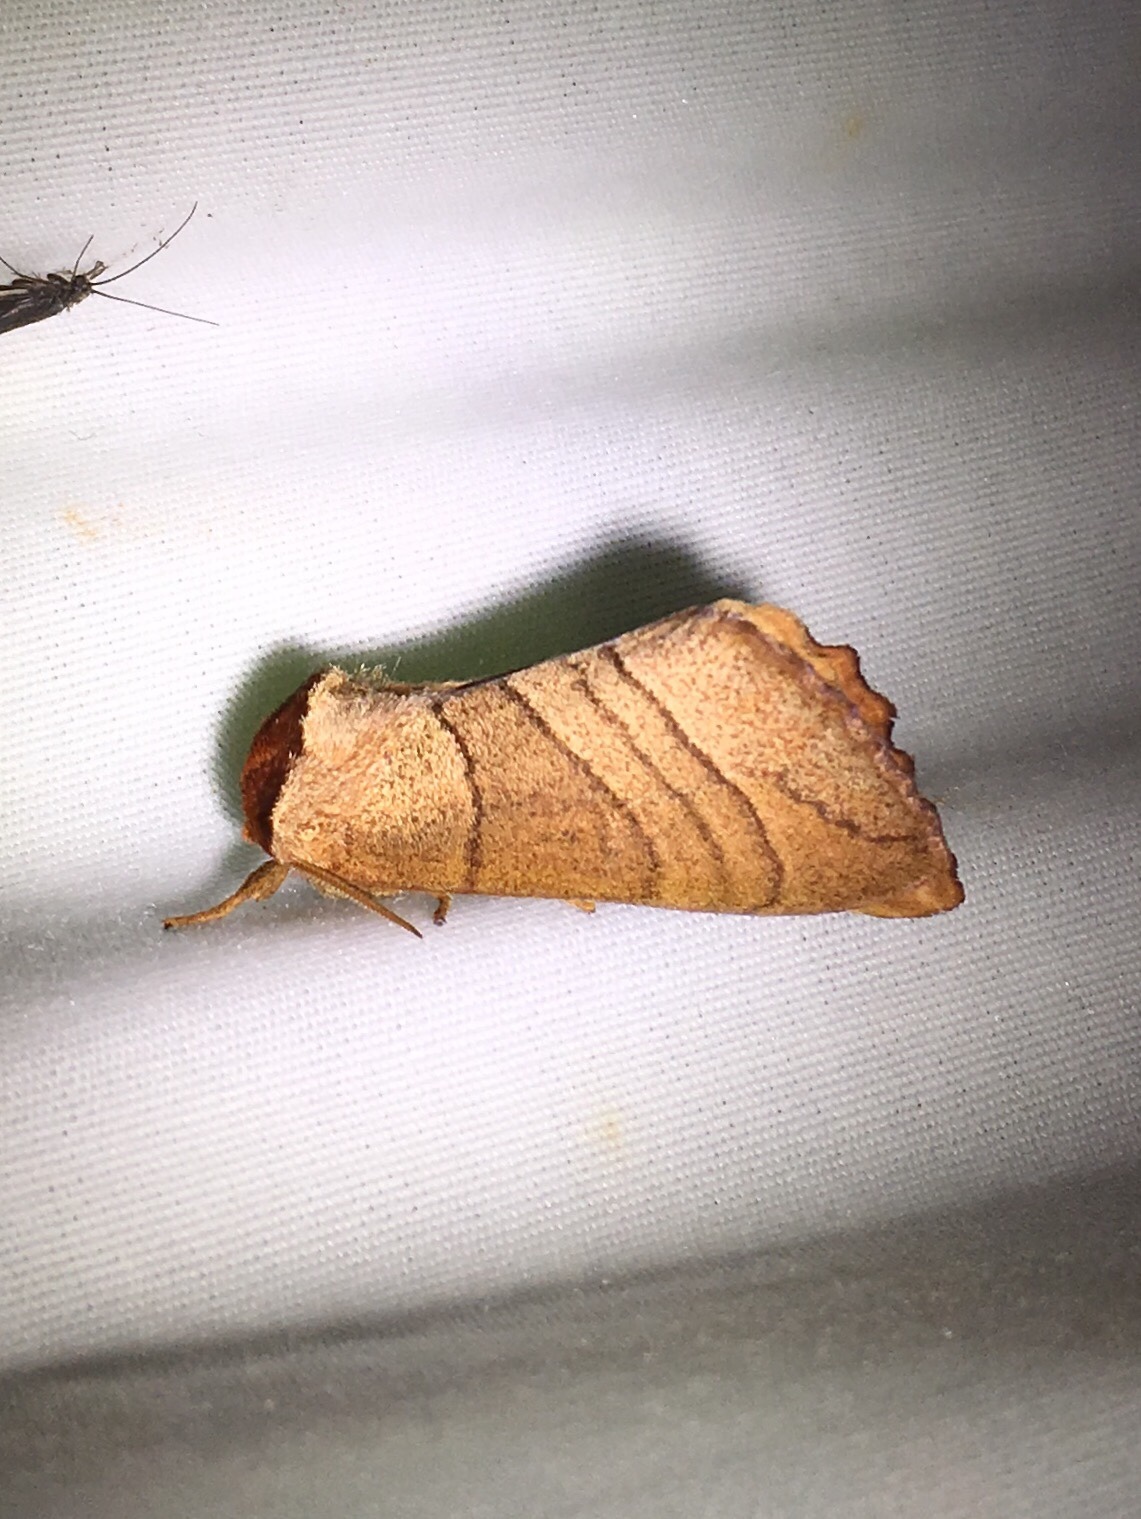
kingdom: Animalia
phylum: Arthropoda
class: Insecta
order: Lepidoptera
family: Notodontidae
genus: Datana
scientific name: Datana ministra
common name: Yellow-necked caterpillar moth
